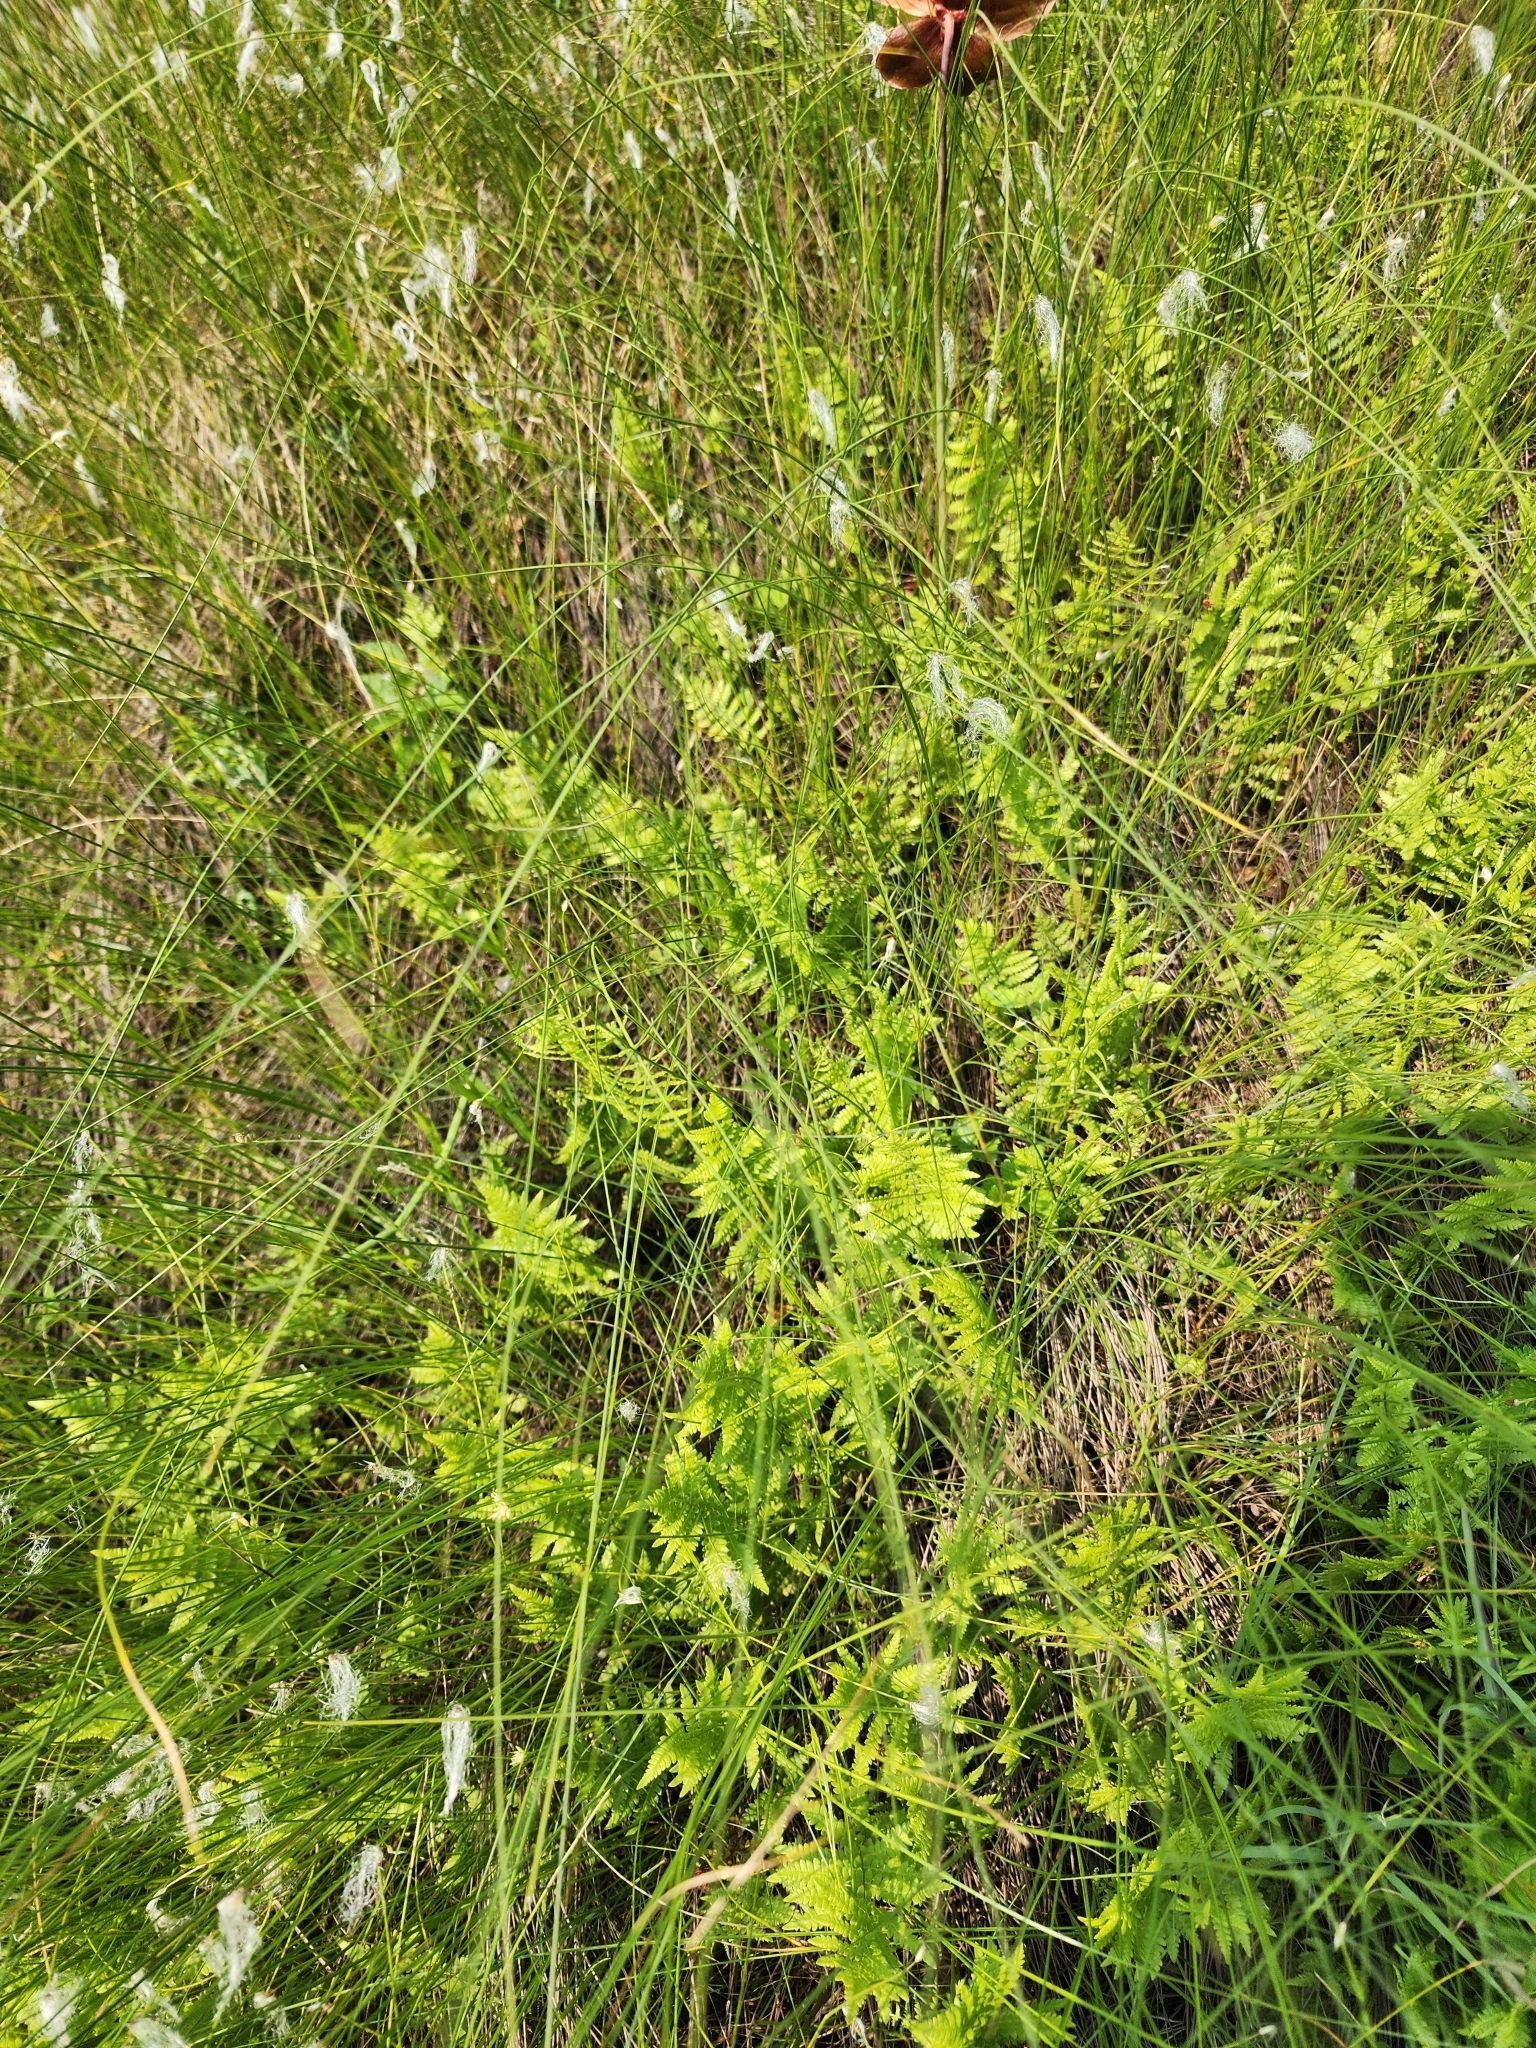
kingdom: Plantae
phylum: Tracheophyta
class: Polypodiopsida
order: Polypodiales
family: Thelypteridaceae
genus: Thelypteris
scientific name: Thelypteris palustris
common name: Marsh fern
